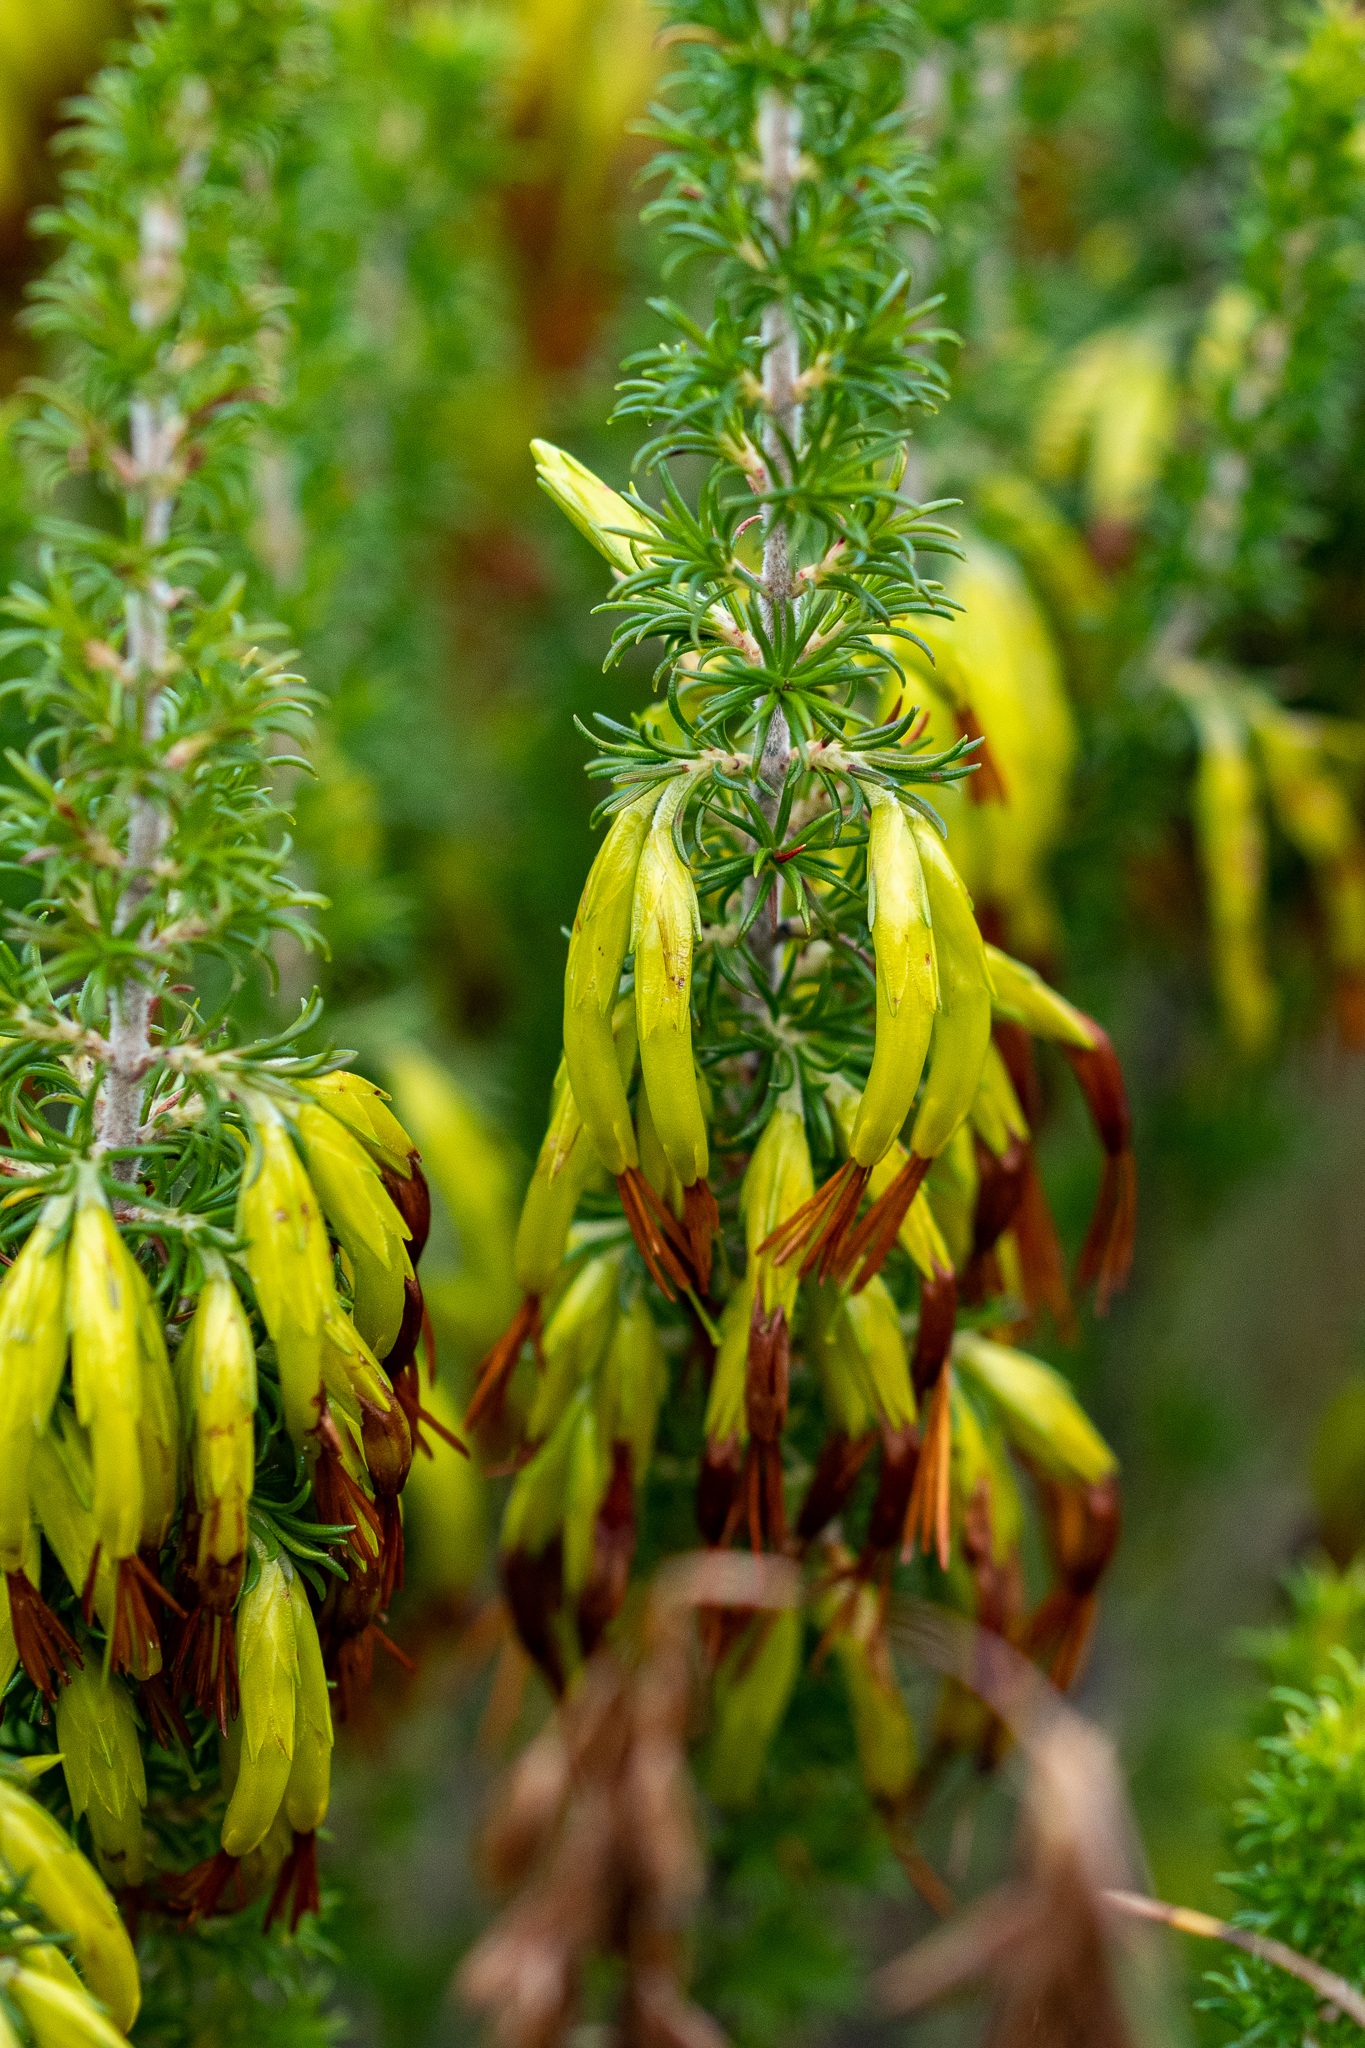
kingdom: Plantae
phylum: Tracheophyta
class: Magnoliopsida
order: Ericales
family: Ericaceae
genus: Erica
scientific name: Erica coccinea
